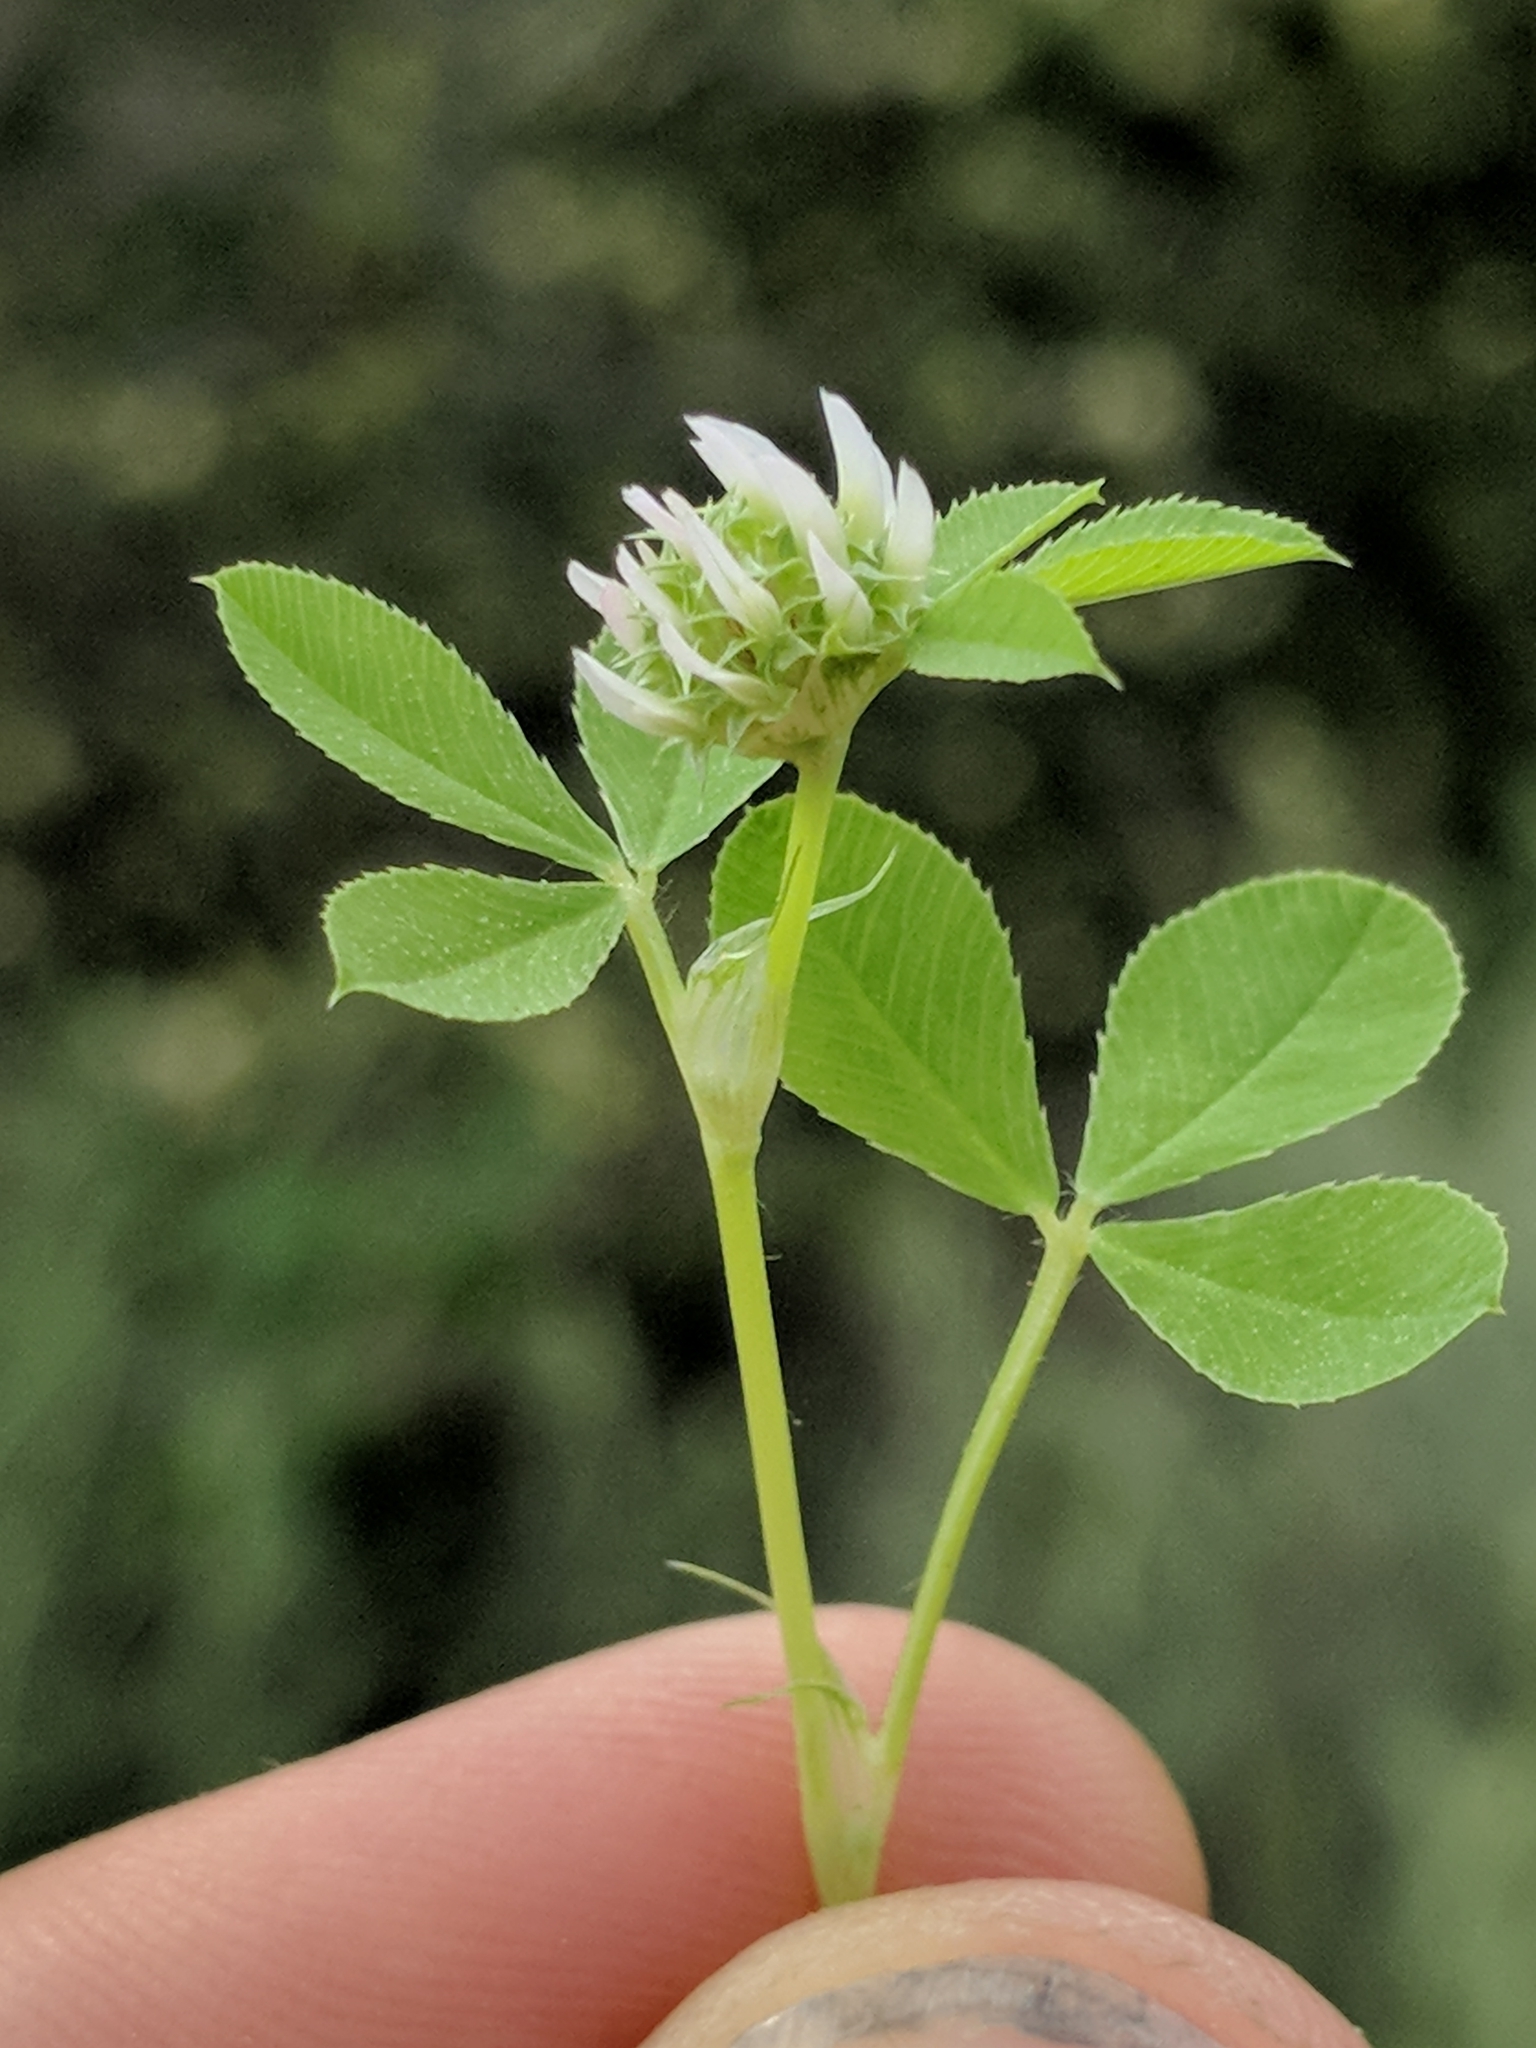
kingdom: Plantae
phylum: Tracheophyta
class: Magnoliopsida
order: Fabales
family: Fabaceae
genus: Trifolium
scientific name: Trifolium glomeratum
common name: Clustered clover
